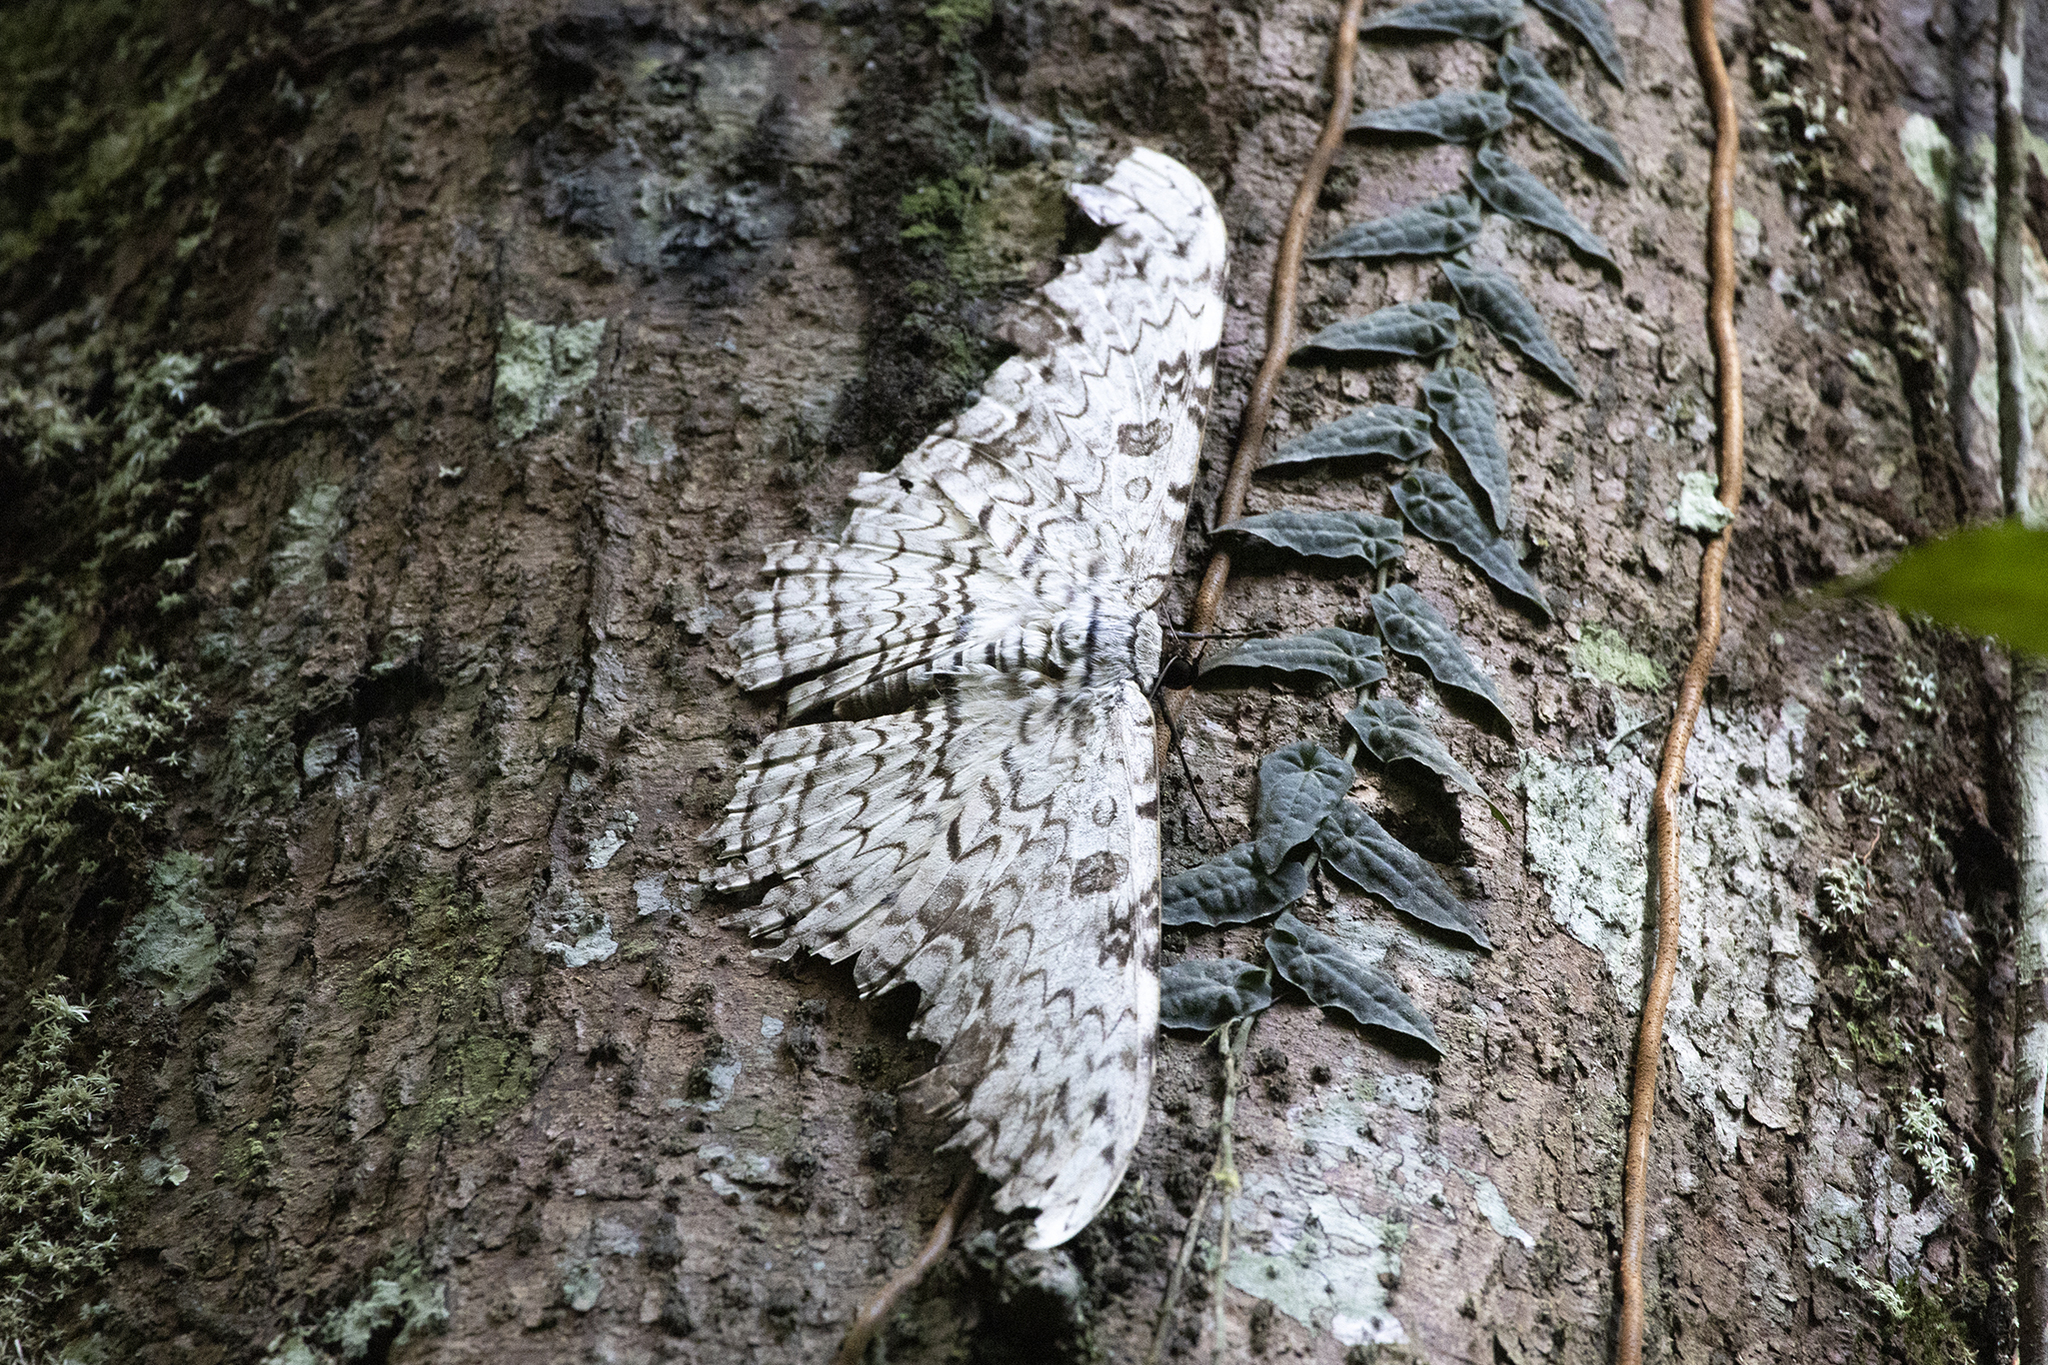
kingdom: Animalia
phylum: Arthropoda
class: Insecta
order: Lepidoptera
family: Erebidae
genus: Thysania
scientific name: Thysania agrippina
